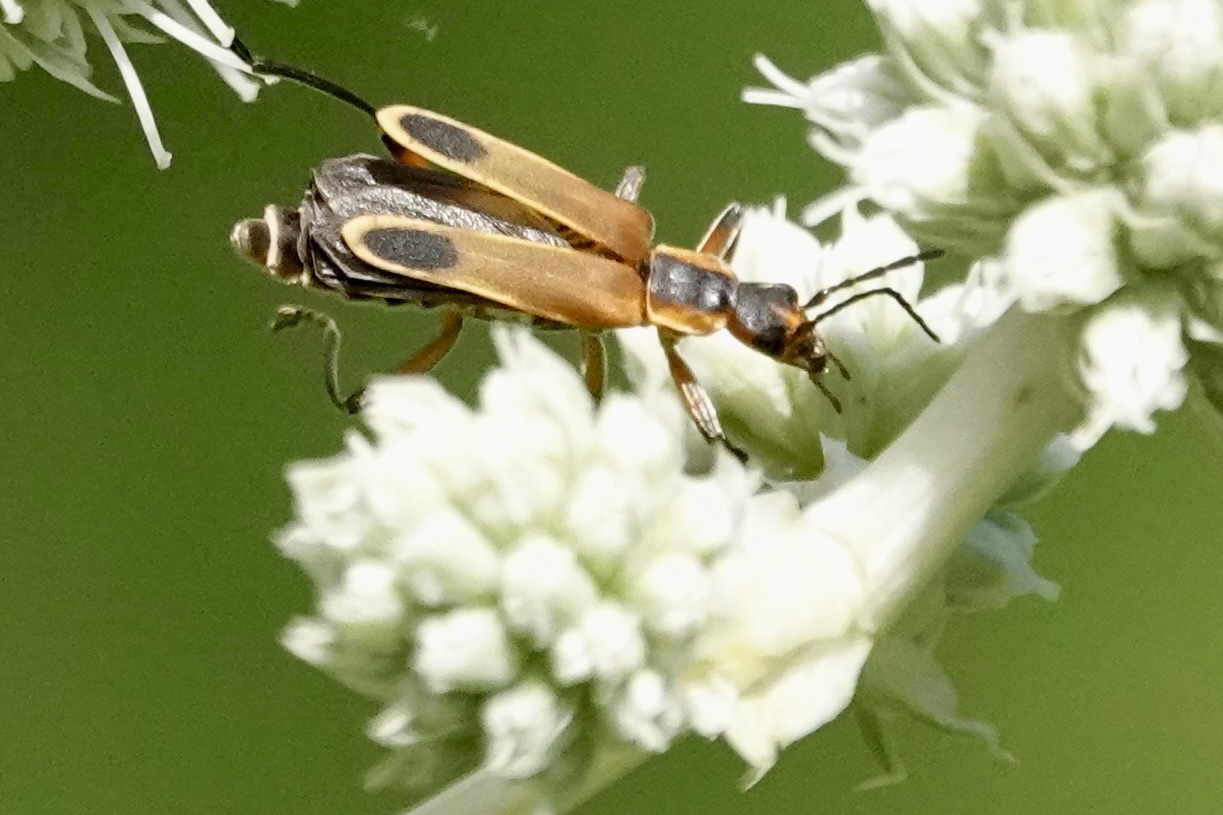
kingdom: Animalia
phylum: Arthropoda
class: Insecta
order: Coleoptera
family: Cantharidae
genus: Chauliognathus
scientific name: Chauliognathus marginatus
